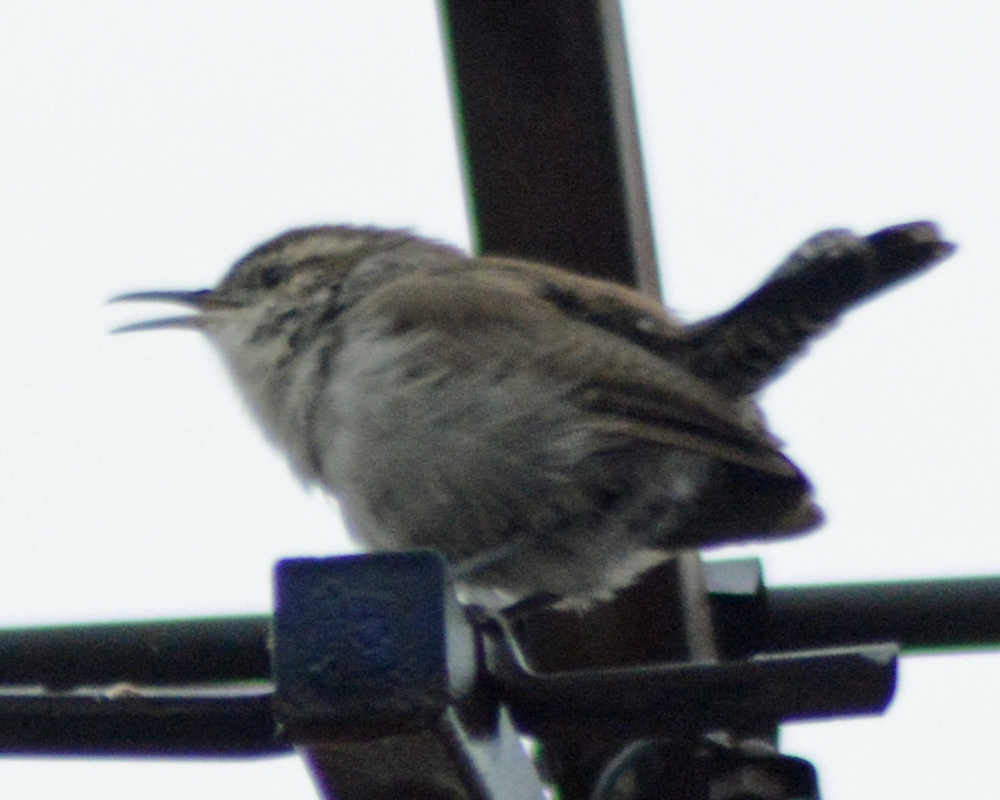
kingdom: Animalia
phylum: Chordata
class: Aves
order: Passeriformes
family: Troglodytidae
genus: Thryomanes
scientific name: Thryomanes bewickii
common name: Bewick's wren
